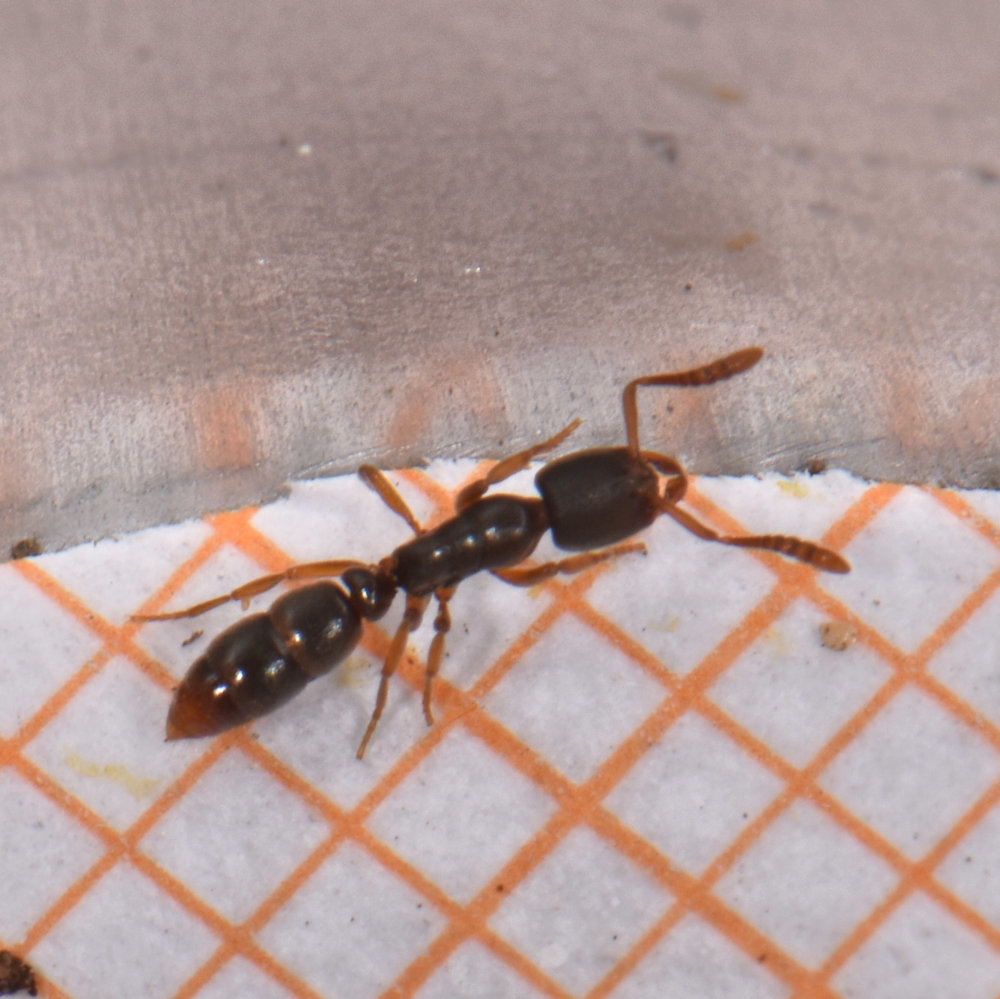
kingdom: Animalia
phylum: Arthropoda
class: Insecta
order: Hymenoptera
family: Formicidae
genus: Ponera
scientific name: Ponera pennsylvanica
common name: Pennsylvania ponera
